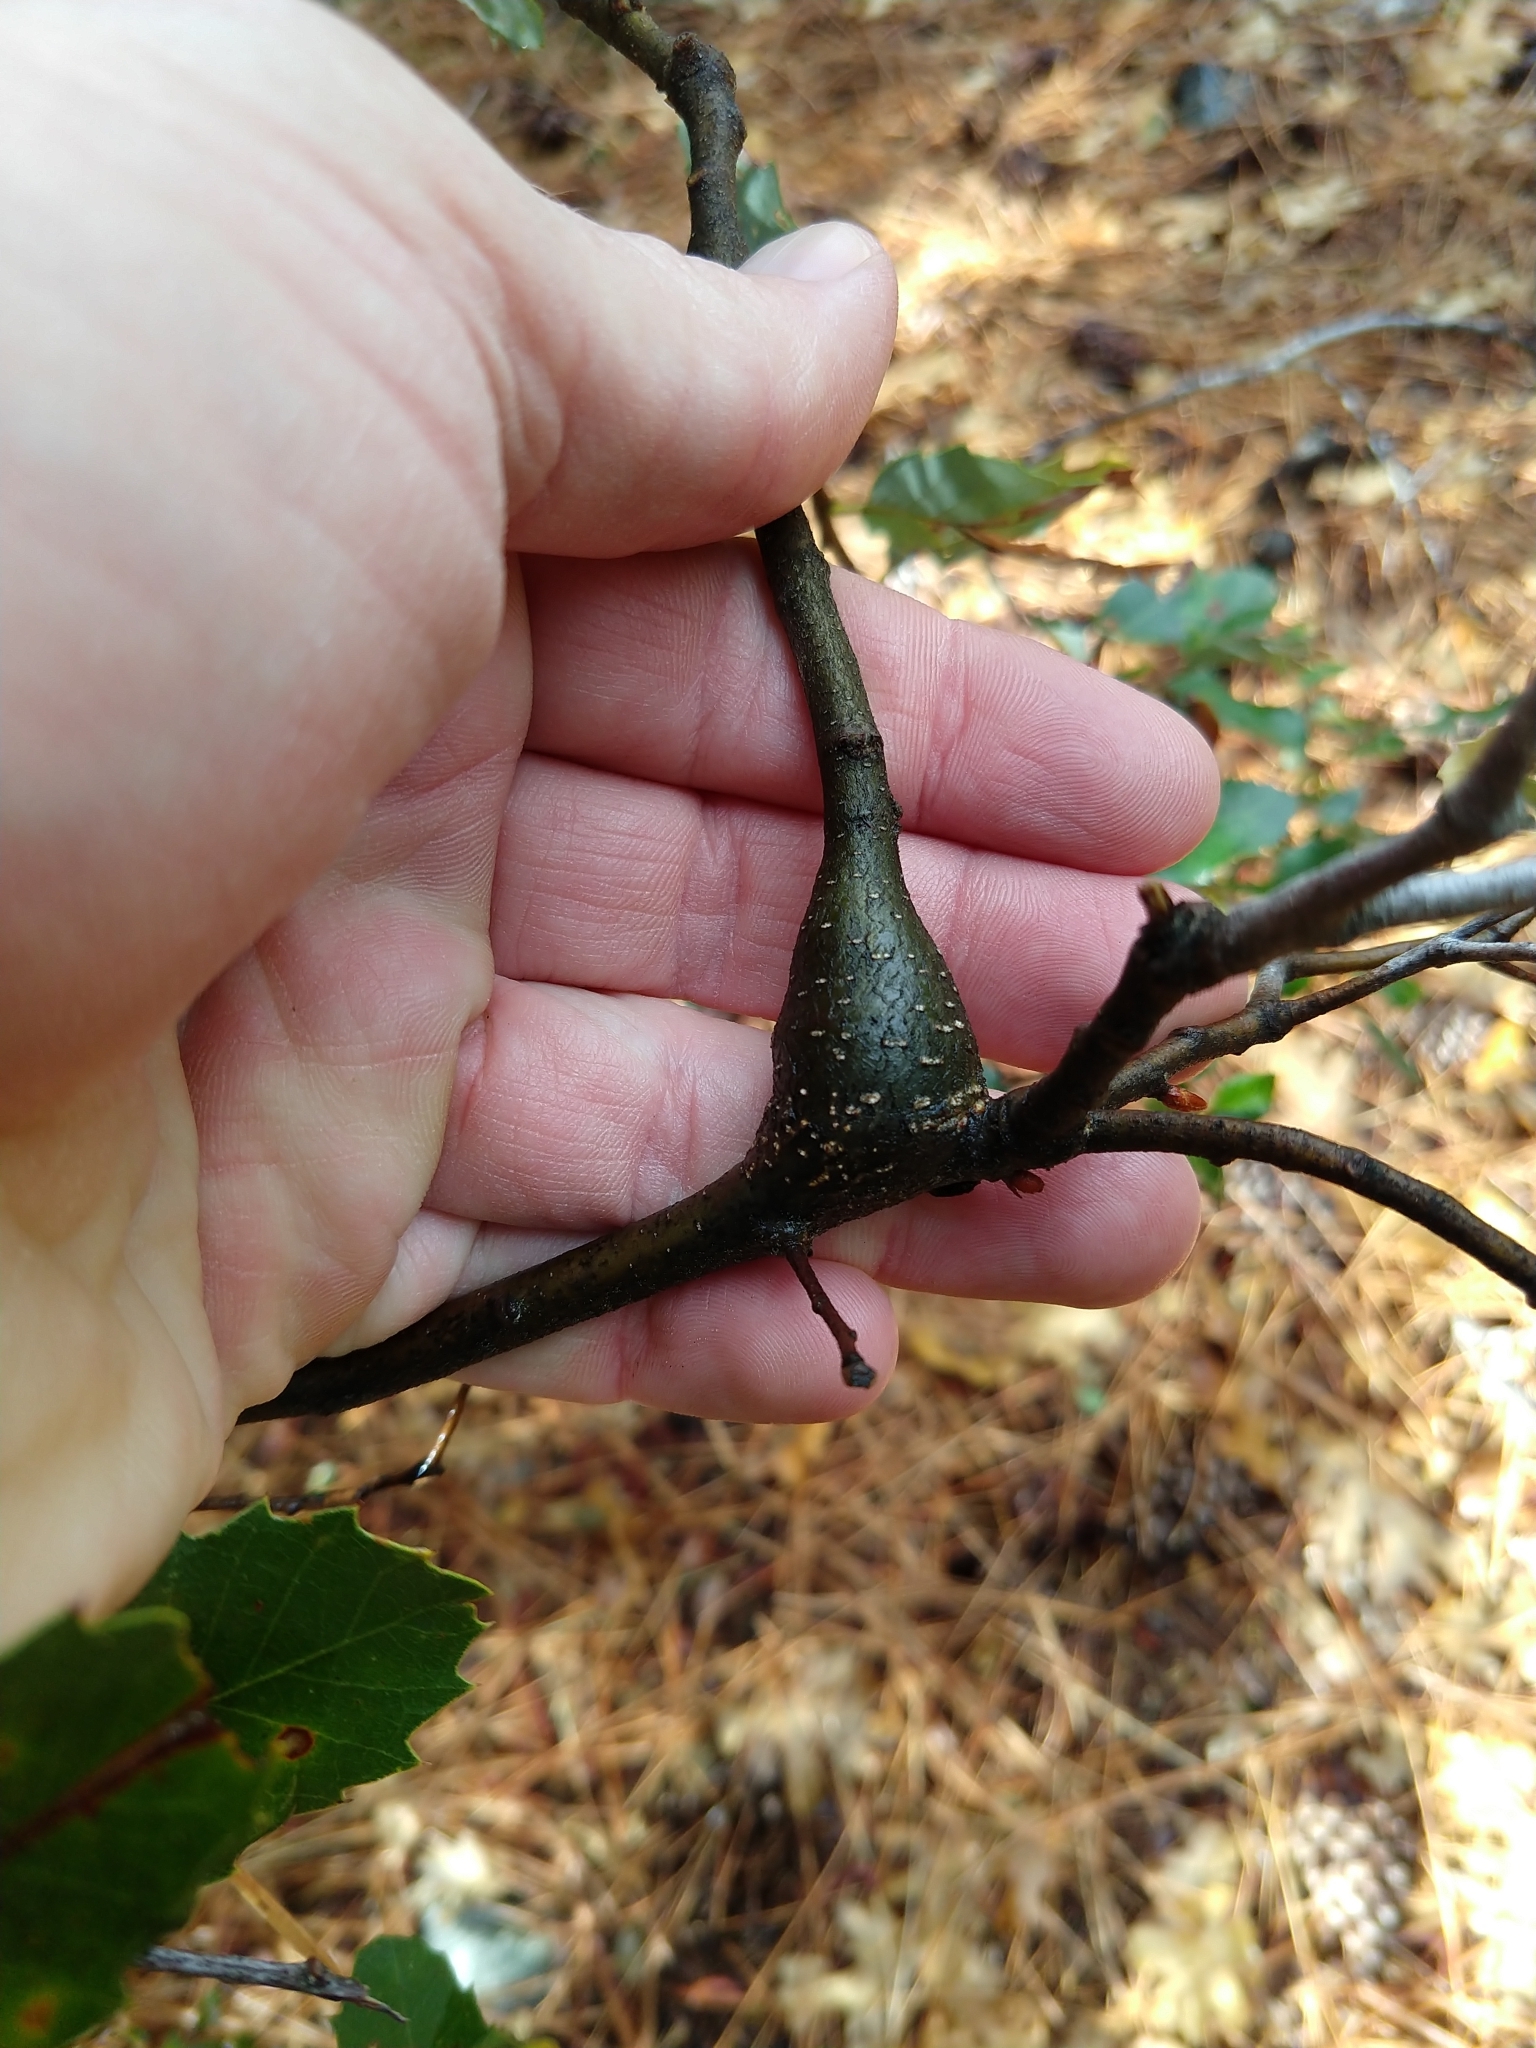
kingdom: Animalia
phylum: Arthropoda
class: Insecta
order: Hymenoptera
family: Cynipidae
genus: Disholcaspis
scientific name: Disholcaspis spectabilis
